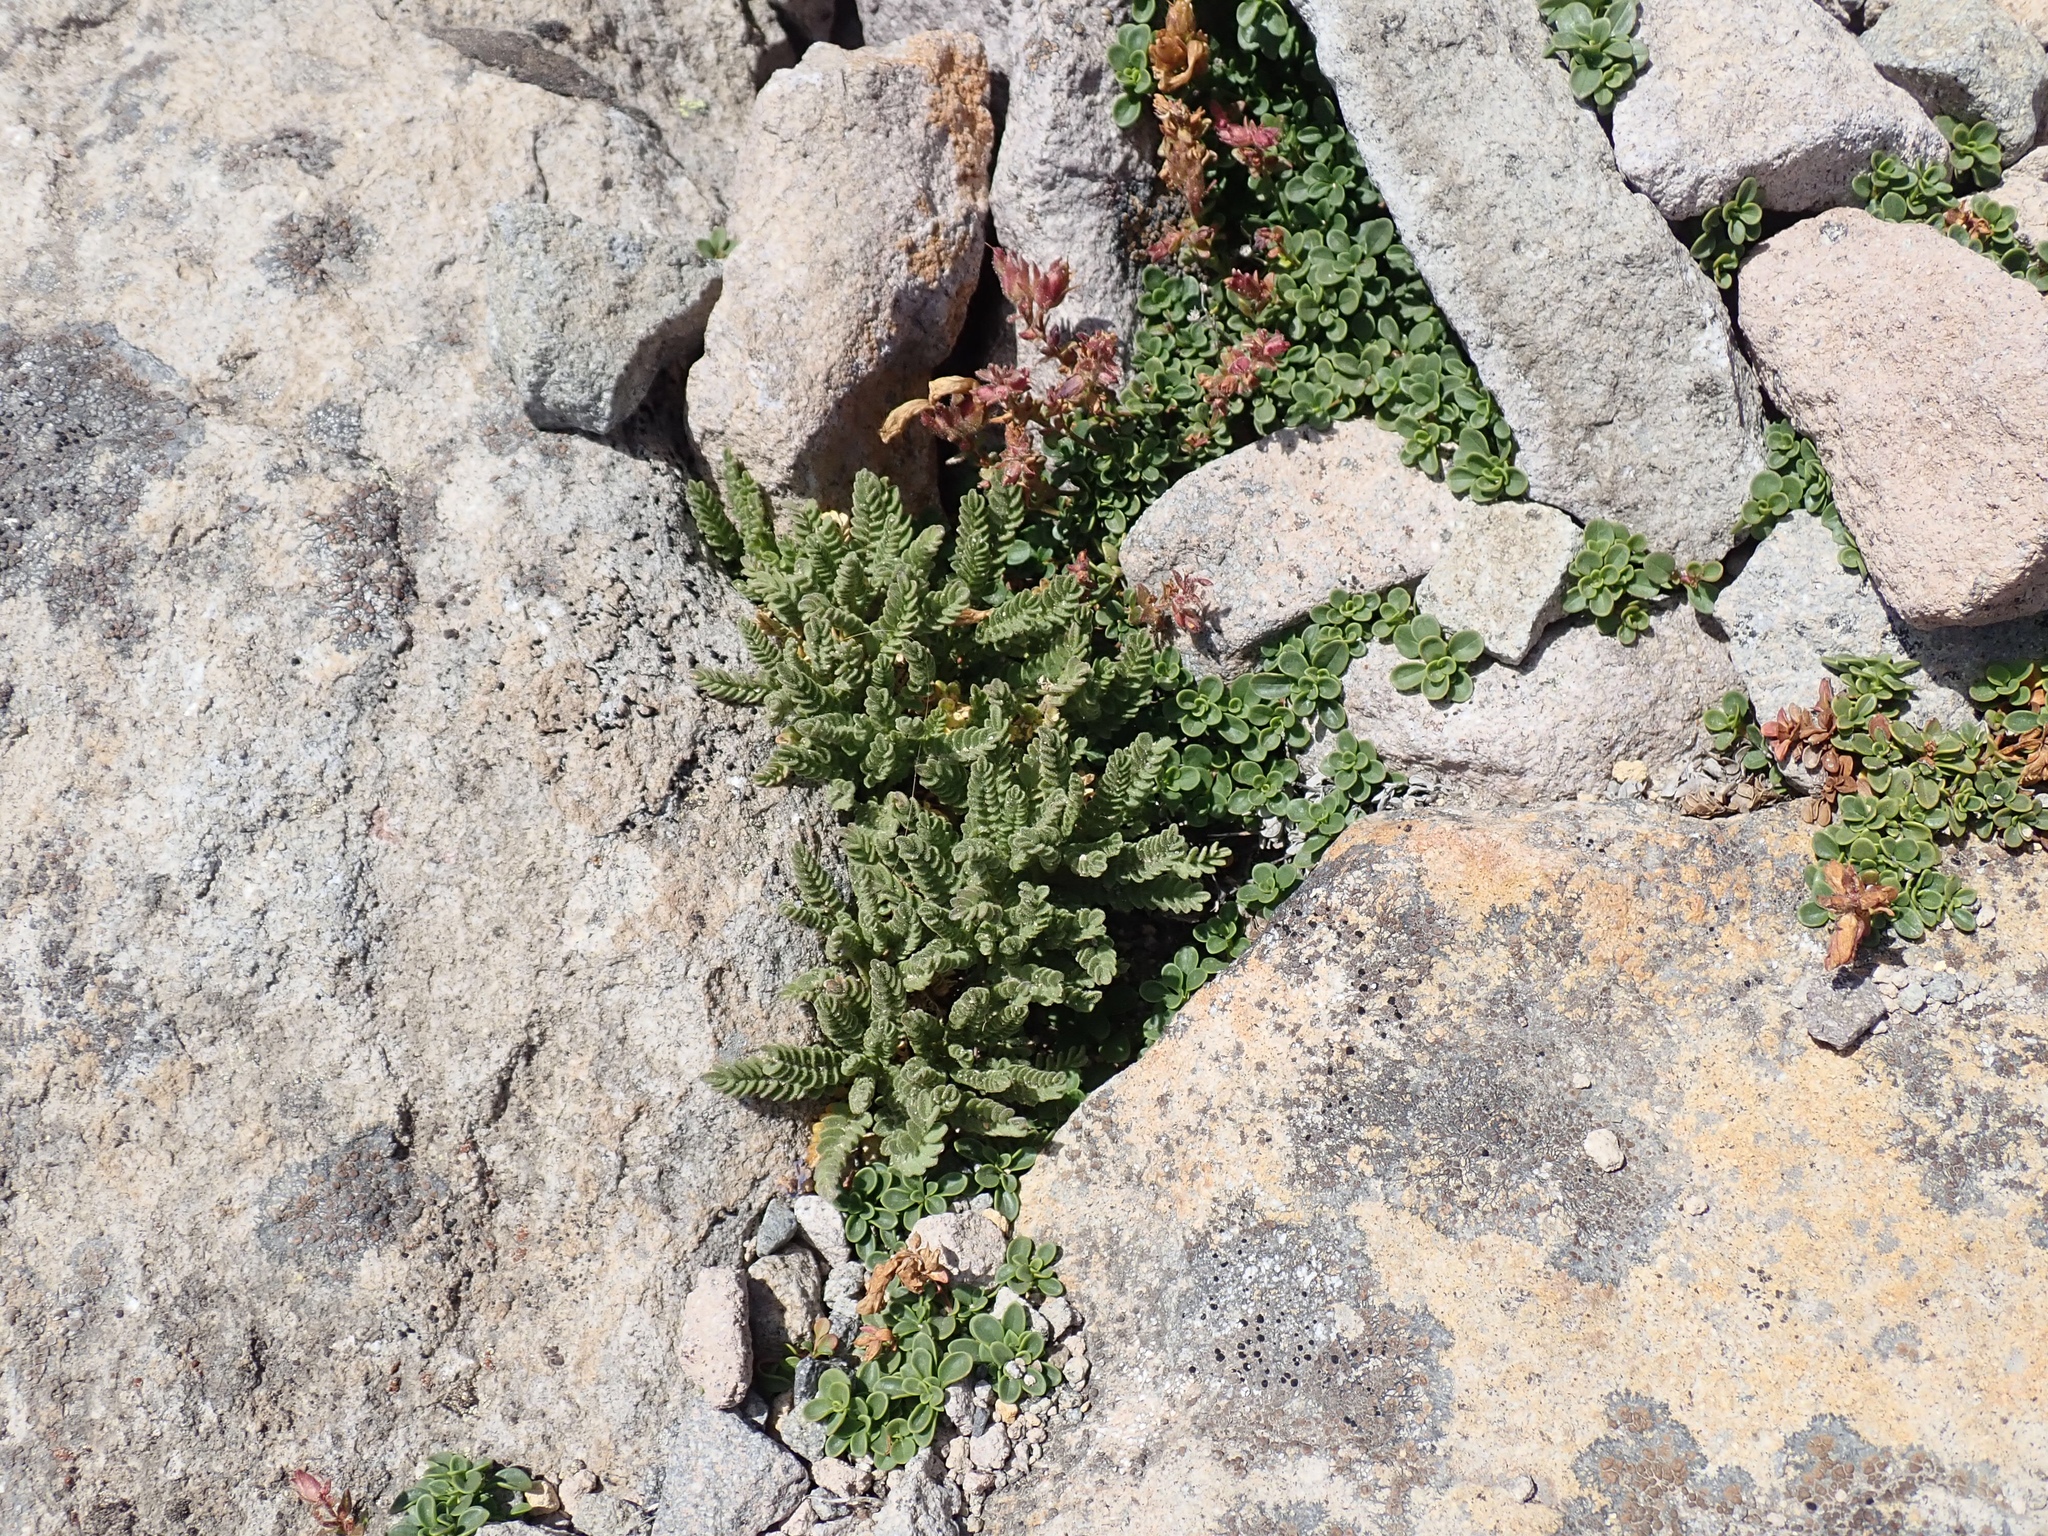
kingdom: Plantae
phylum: Tracheophyta
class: Magnoliopsida
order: Ericales
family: Polemoniaceae
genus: Polemonium
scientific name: Polemonium elegans
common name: Elegant jacob's-ladder
